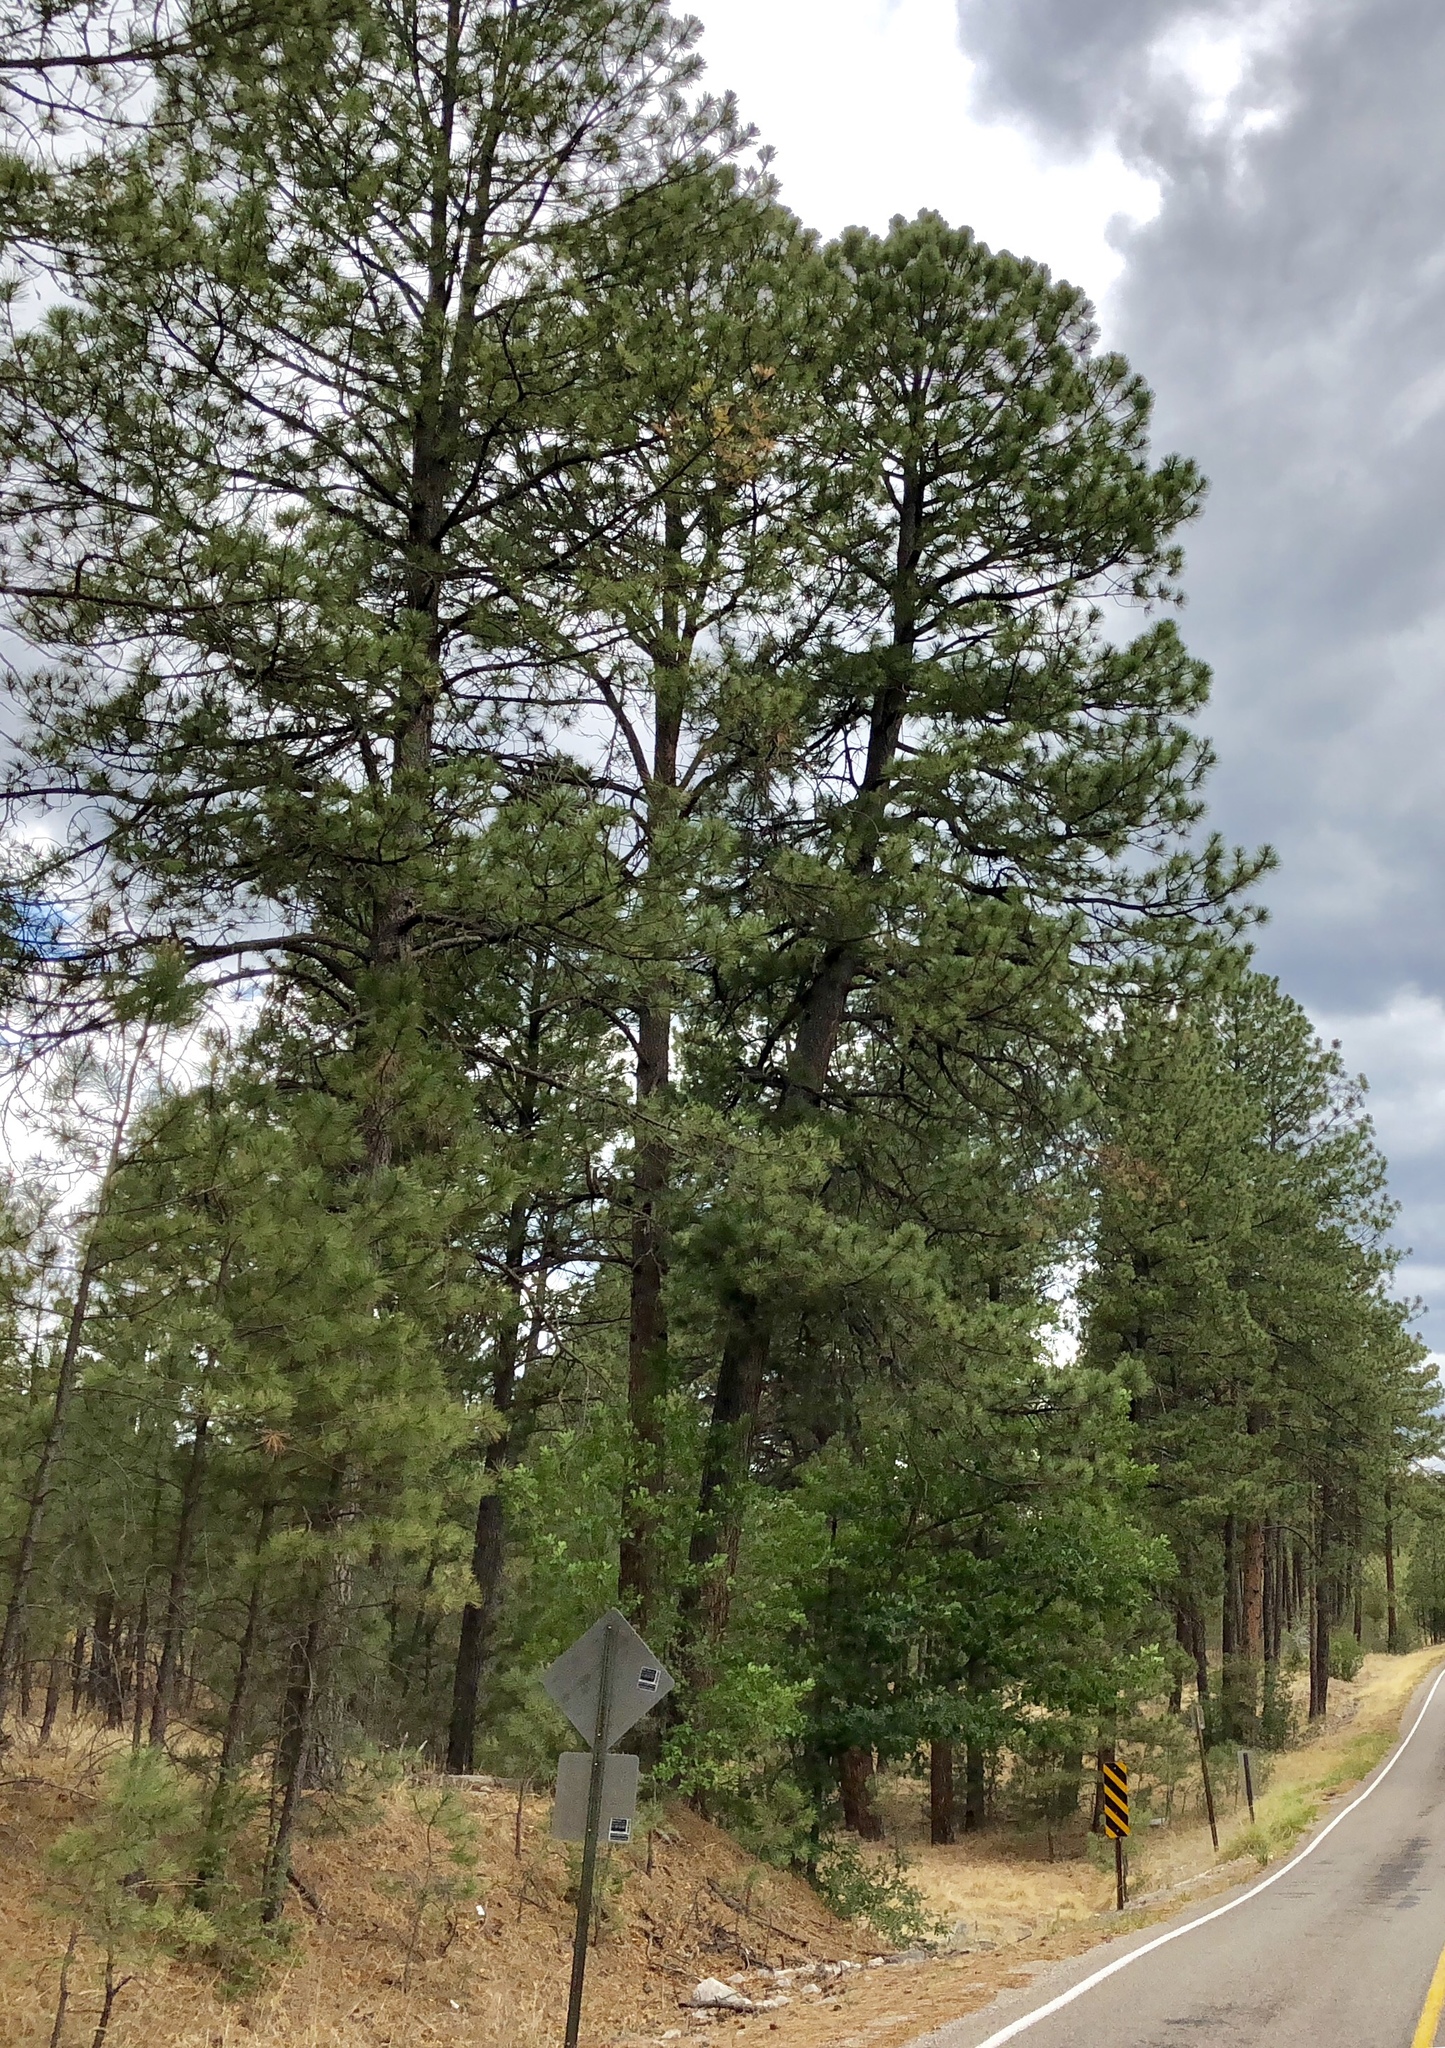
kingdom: Plantae
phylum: Tracheophyta
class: Pinopsida
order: Pinales
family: Pinaceae
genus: Pinus
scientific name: Pinus ponderosa
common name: Western yellow-pine
